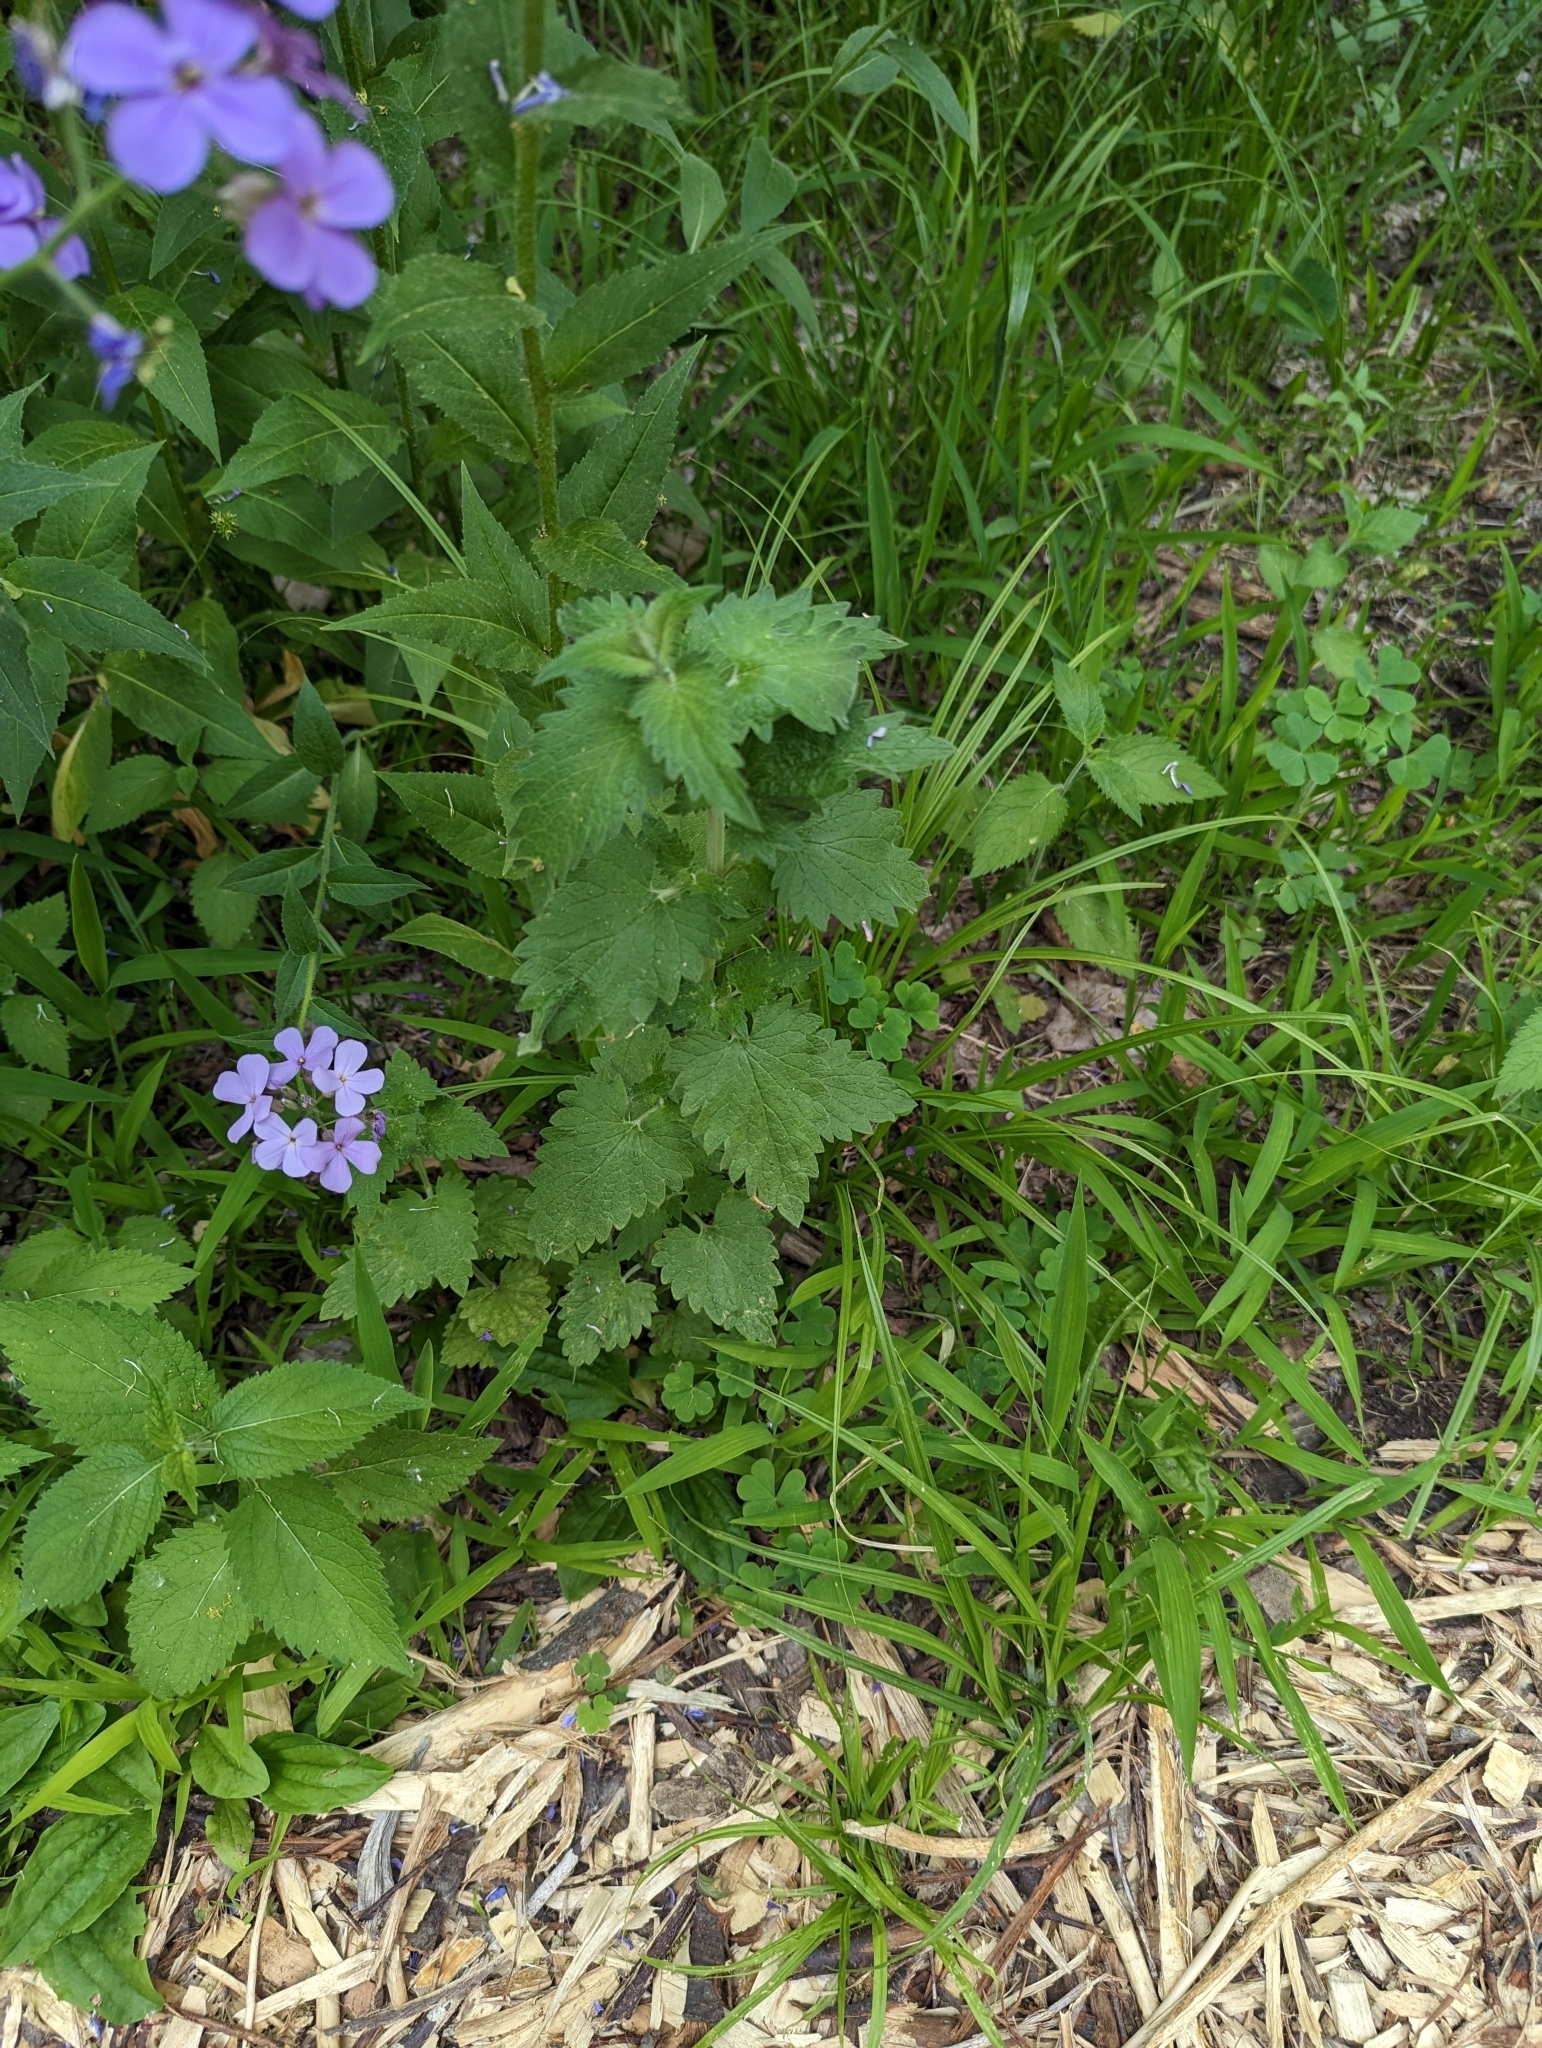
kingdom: Plantae
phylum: Tracheophyta
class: Magnoliopsida
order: Lamiales
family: Lamiaceae
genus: Nepeta
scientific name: Nepeta cataria
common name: Catnip
